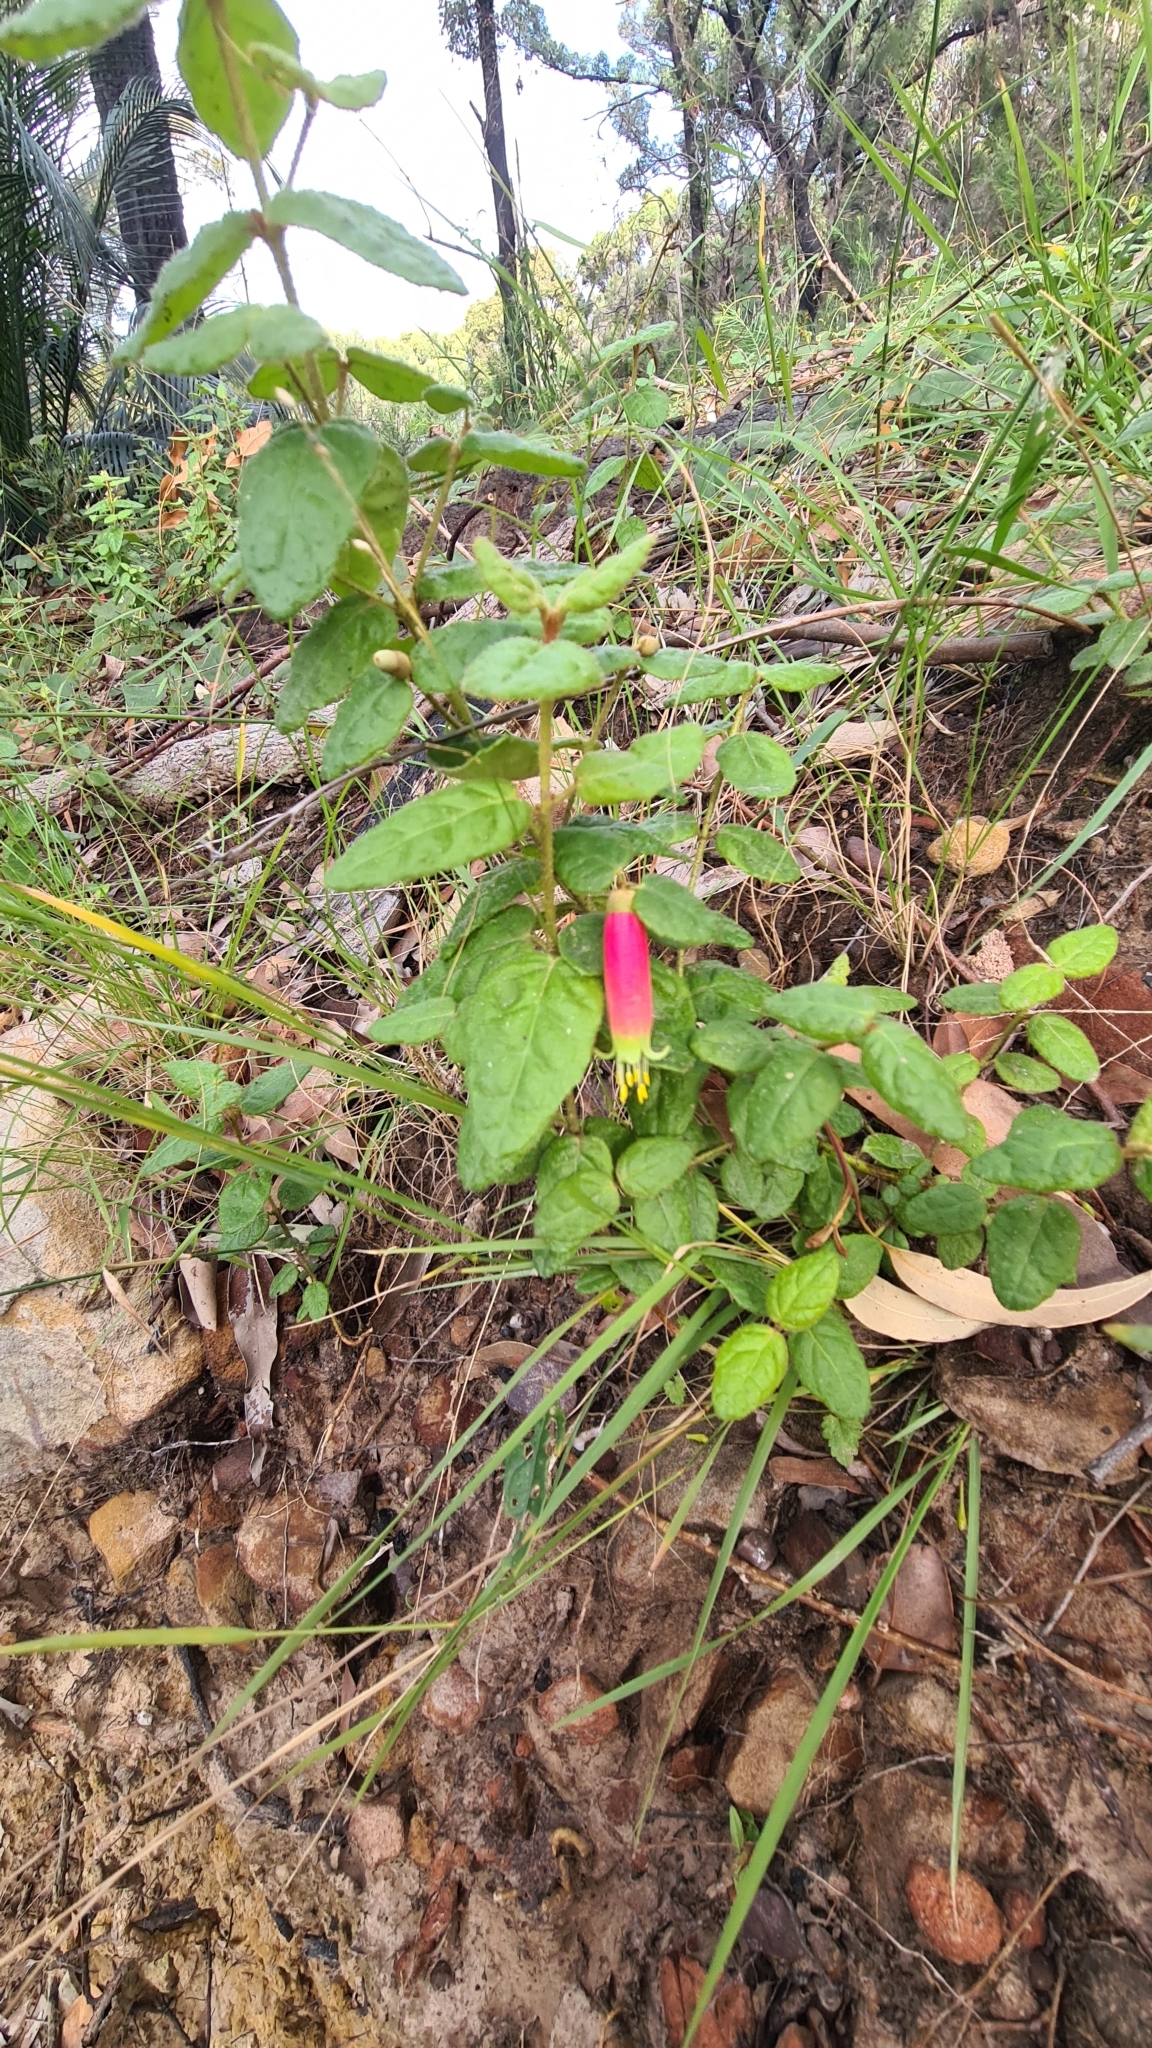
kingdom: Plantae
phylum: Tracheophyta
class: Magnoliopsida
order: Sapindales
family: Rutaceae
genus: Correa
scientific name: Correa reflexa
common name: Common correa
